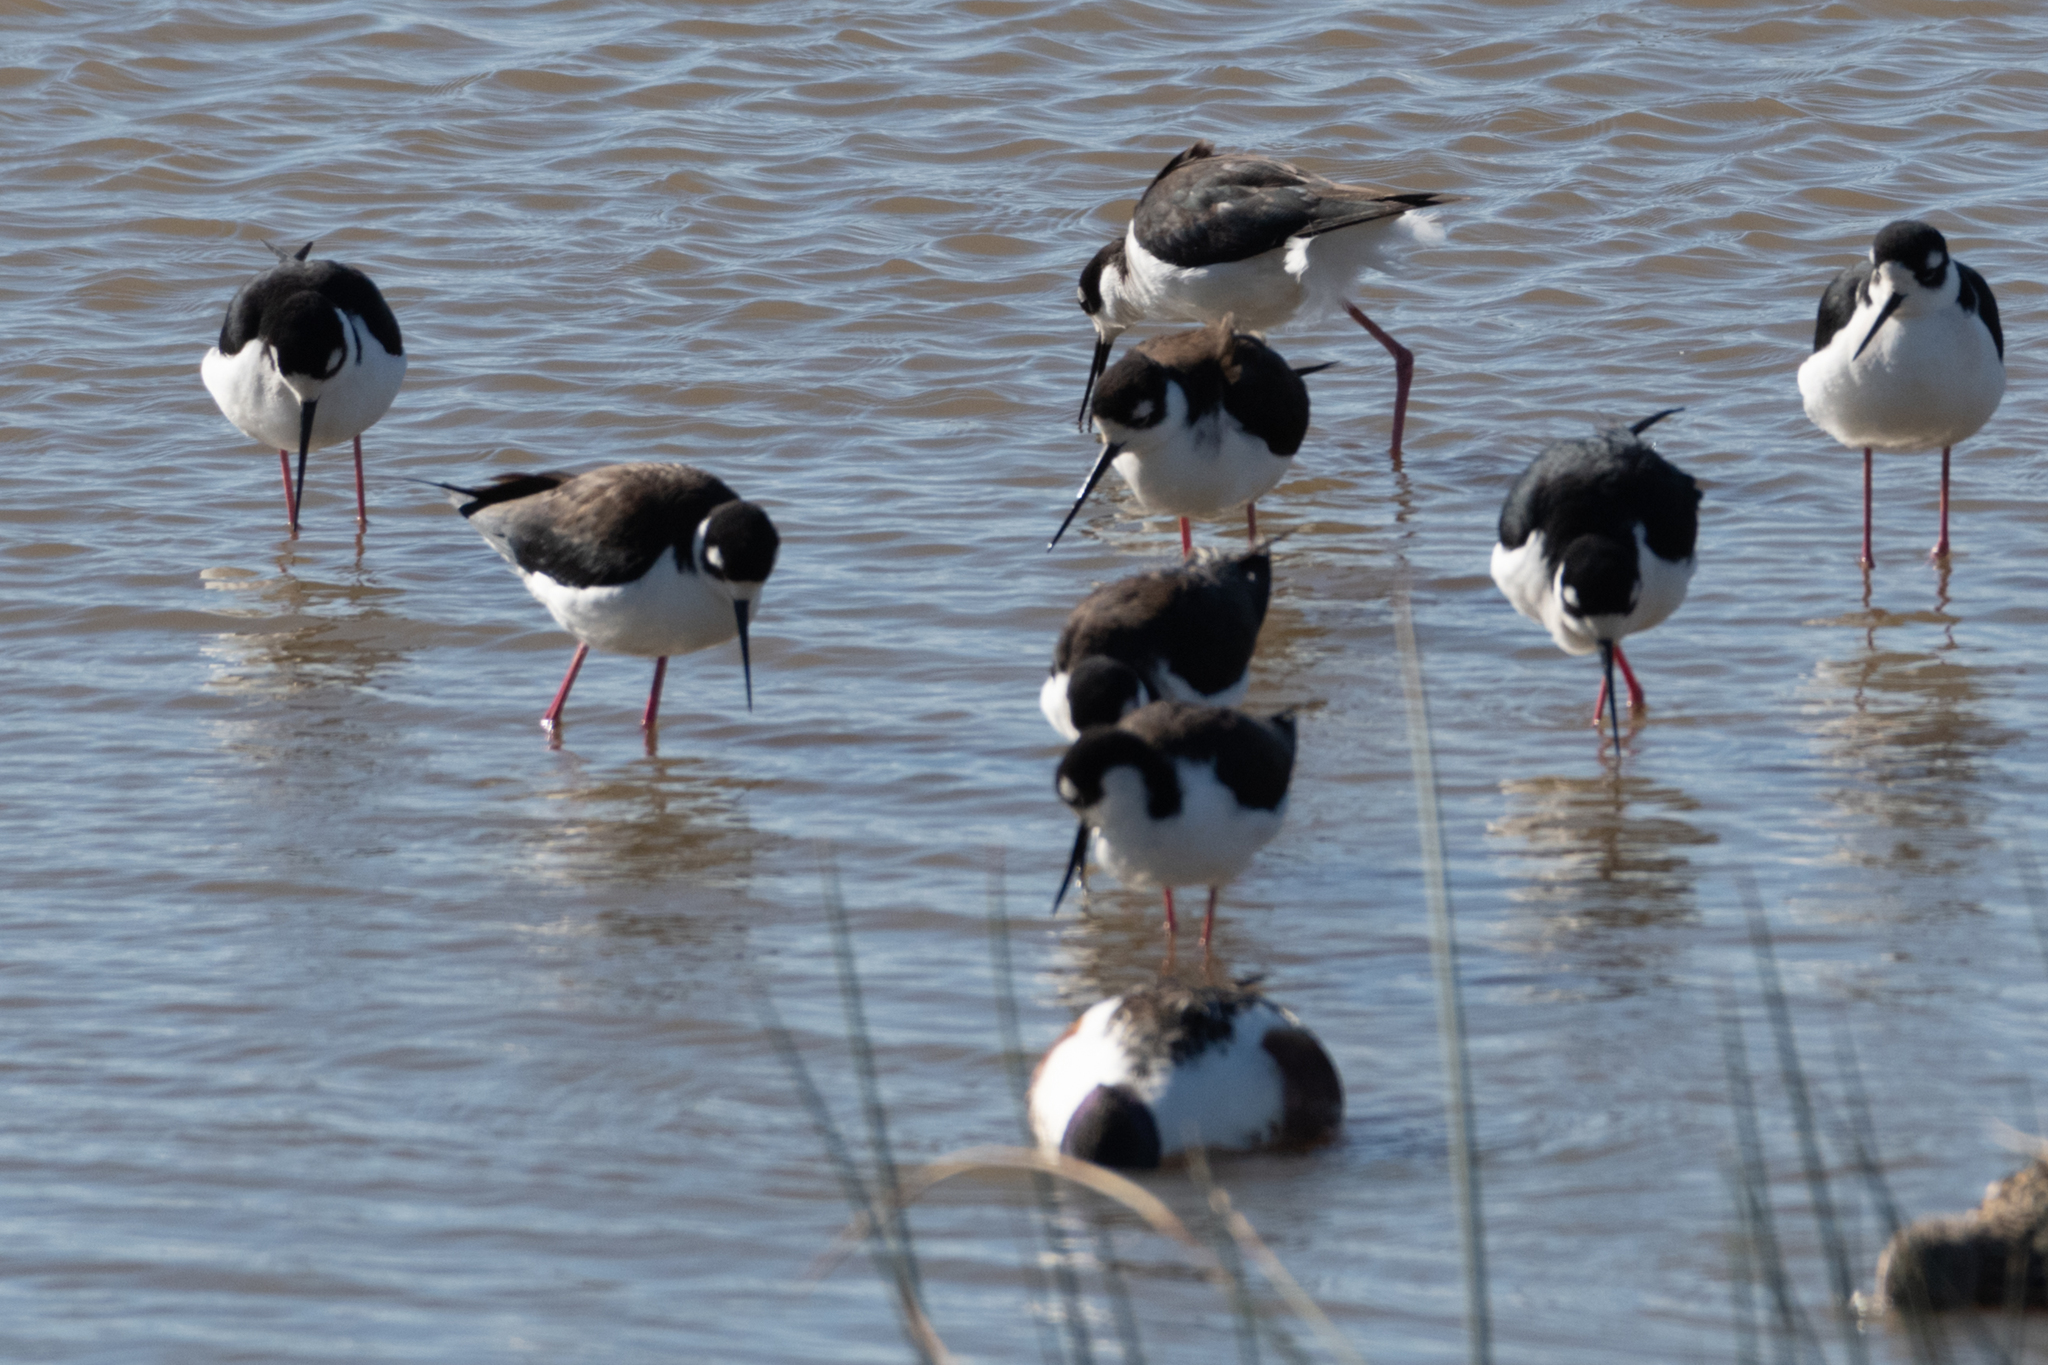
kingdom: Animalia
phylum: Chordata
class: Aves
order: Charadriiformes
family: Recurvirostridae
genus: Himantopus
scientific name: Himantopus mexicanus
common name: Black-necked stilt
